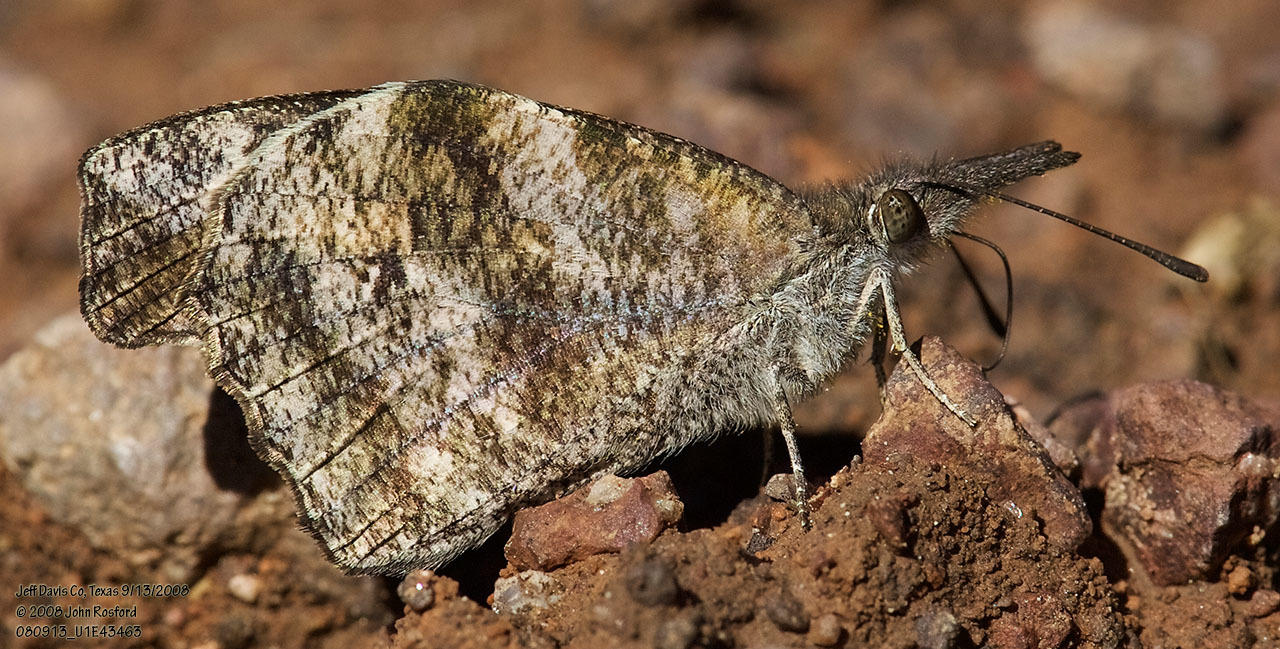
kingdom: Animalia
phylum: Arthropoda
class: Insecta
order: Lepidoptera
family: Nymphalidae
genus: Libytheana
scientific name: Libytheana carinenta
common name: American snout
